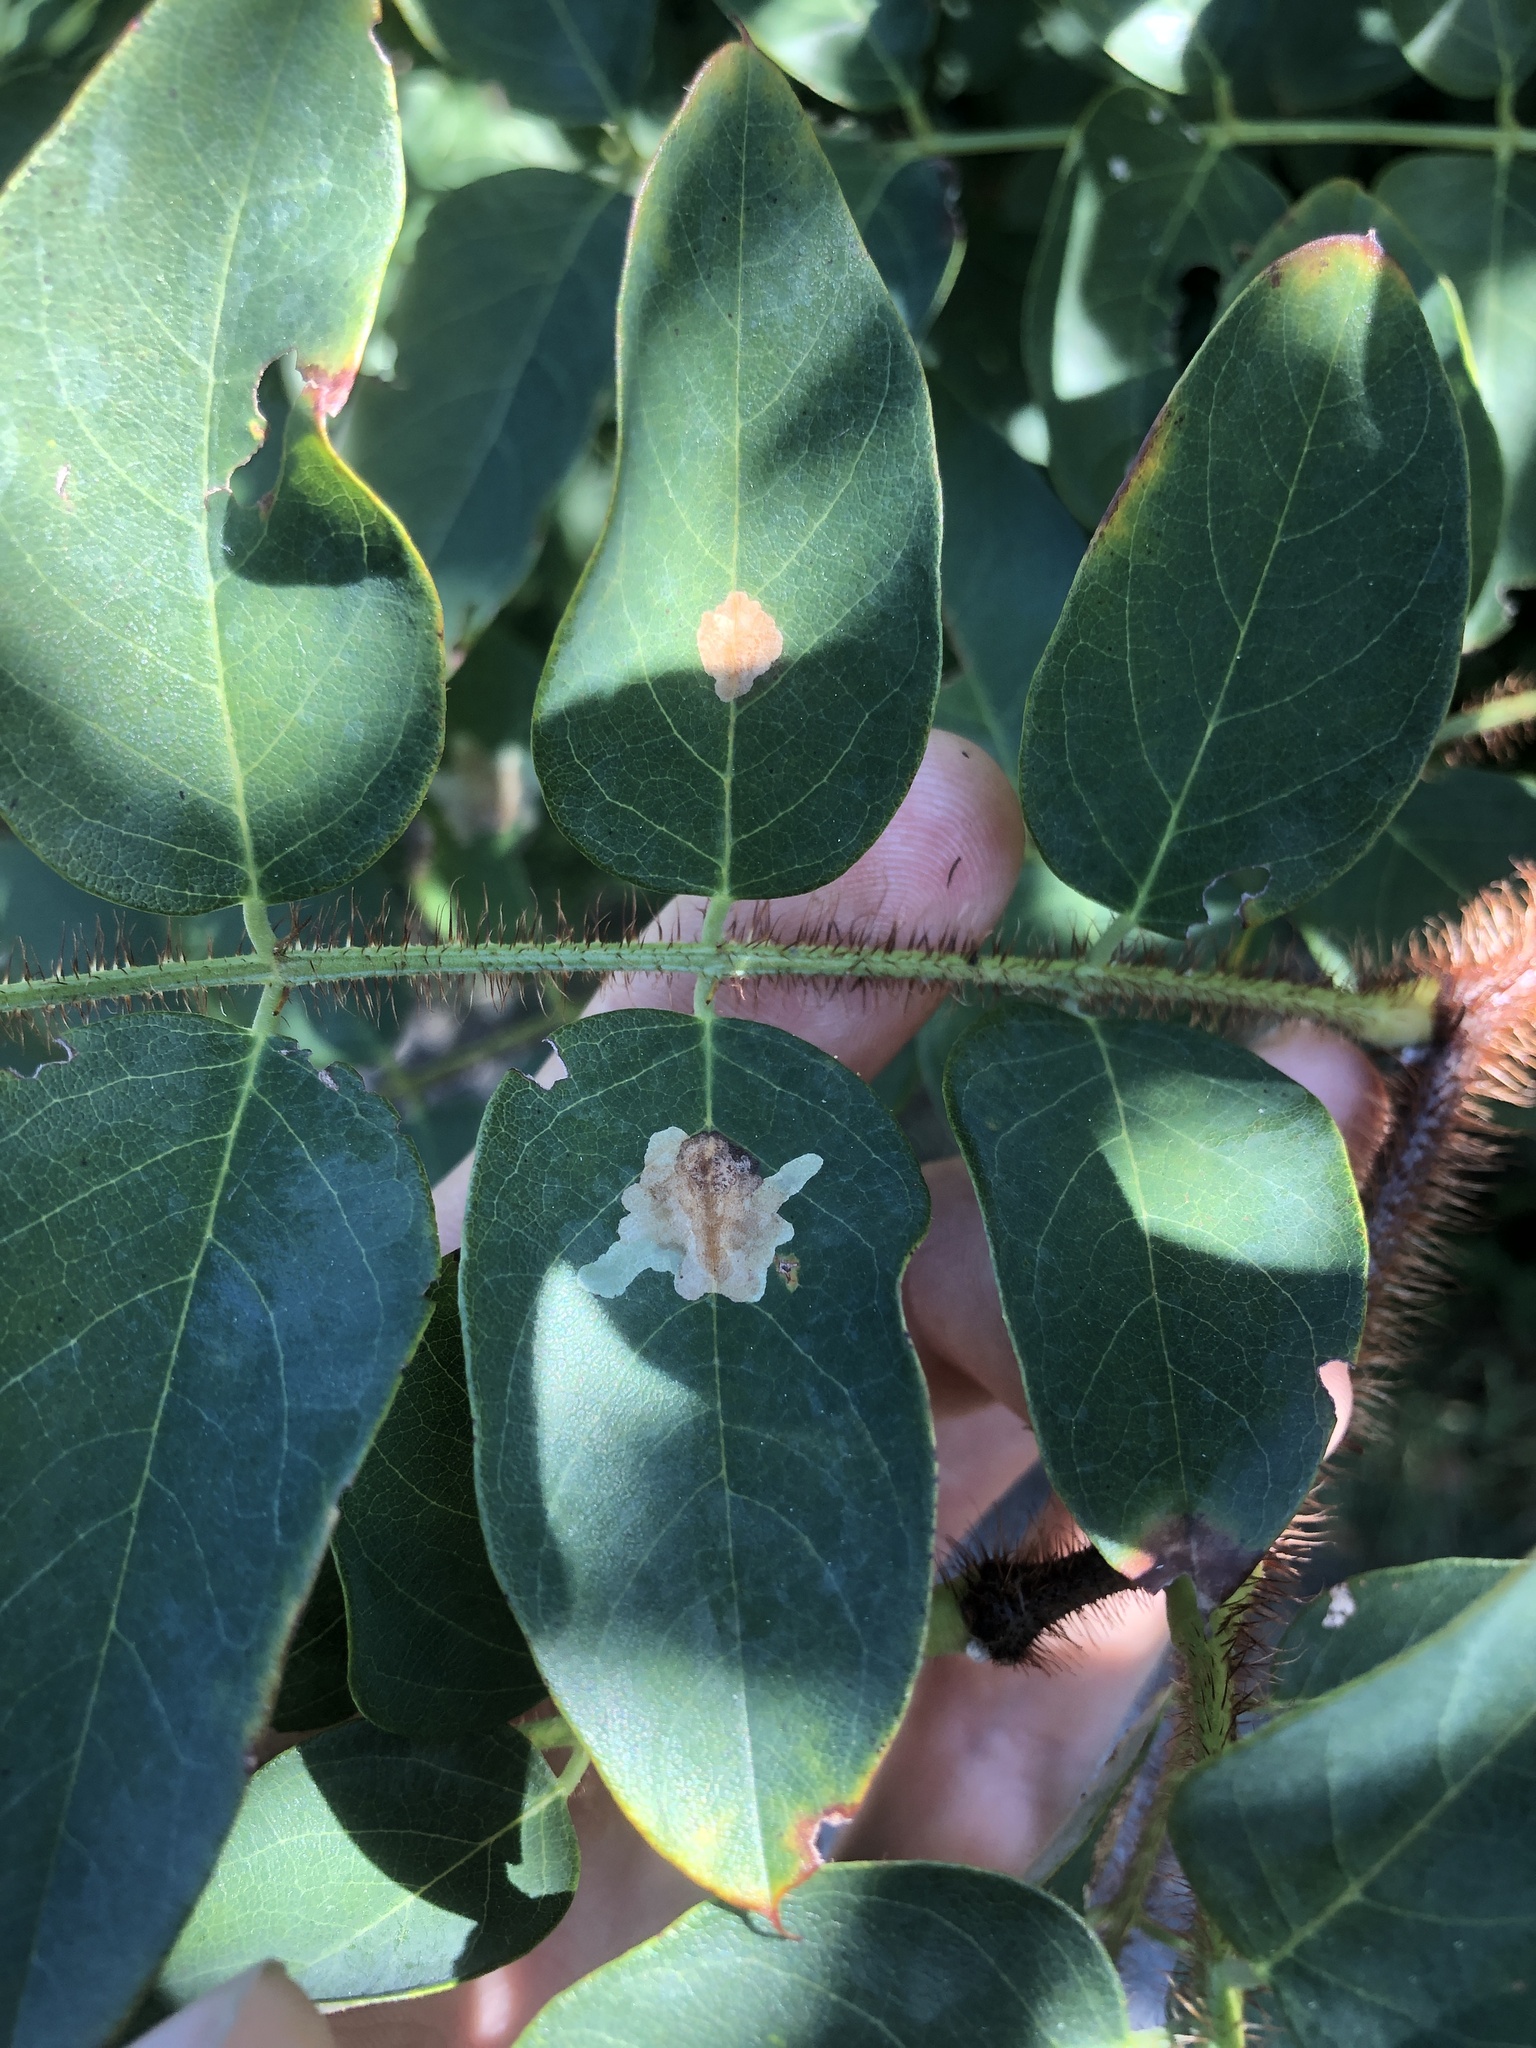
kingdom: Animalia
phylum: Arthropoda
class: Insecta
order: Lepidoptera
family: Gracillariidae
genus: Parectopa
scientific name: Parectopa robiniella
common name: Locust digitate leafminer
